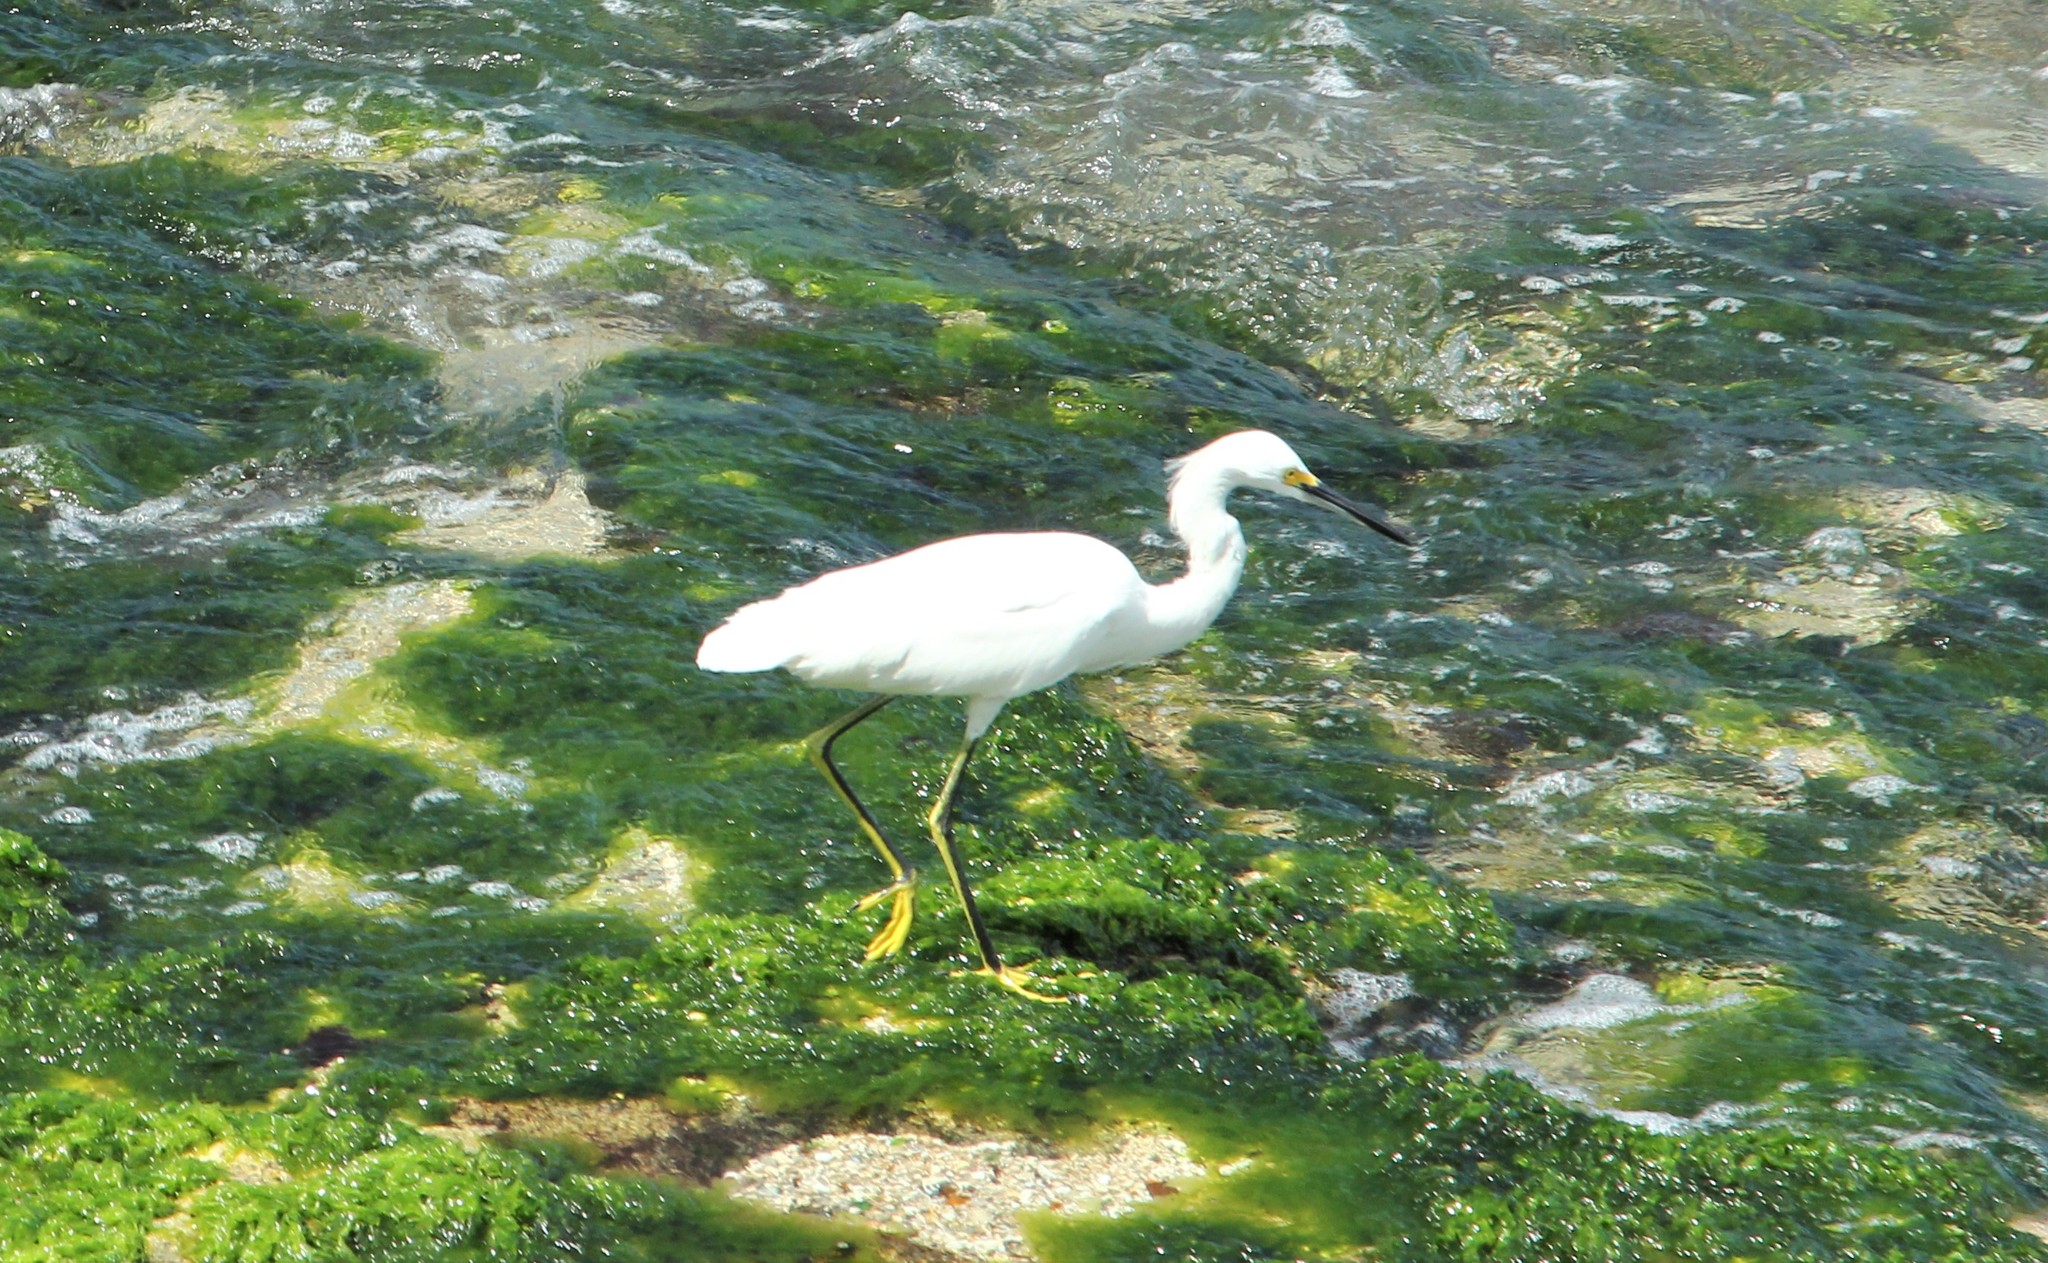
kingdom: Animalia
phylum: Chordata
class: Aves
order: Pelecaniformes
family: Ardeidae
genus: Egretta
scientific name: Egretta thula
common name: Snowy egret
